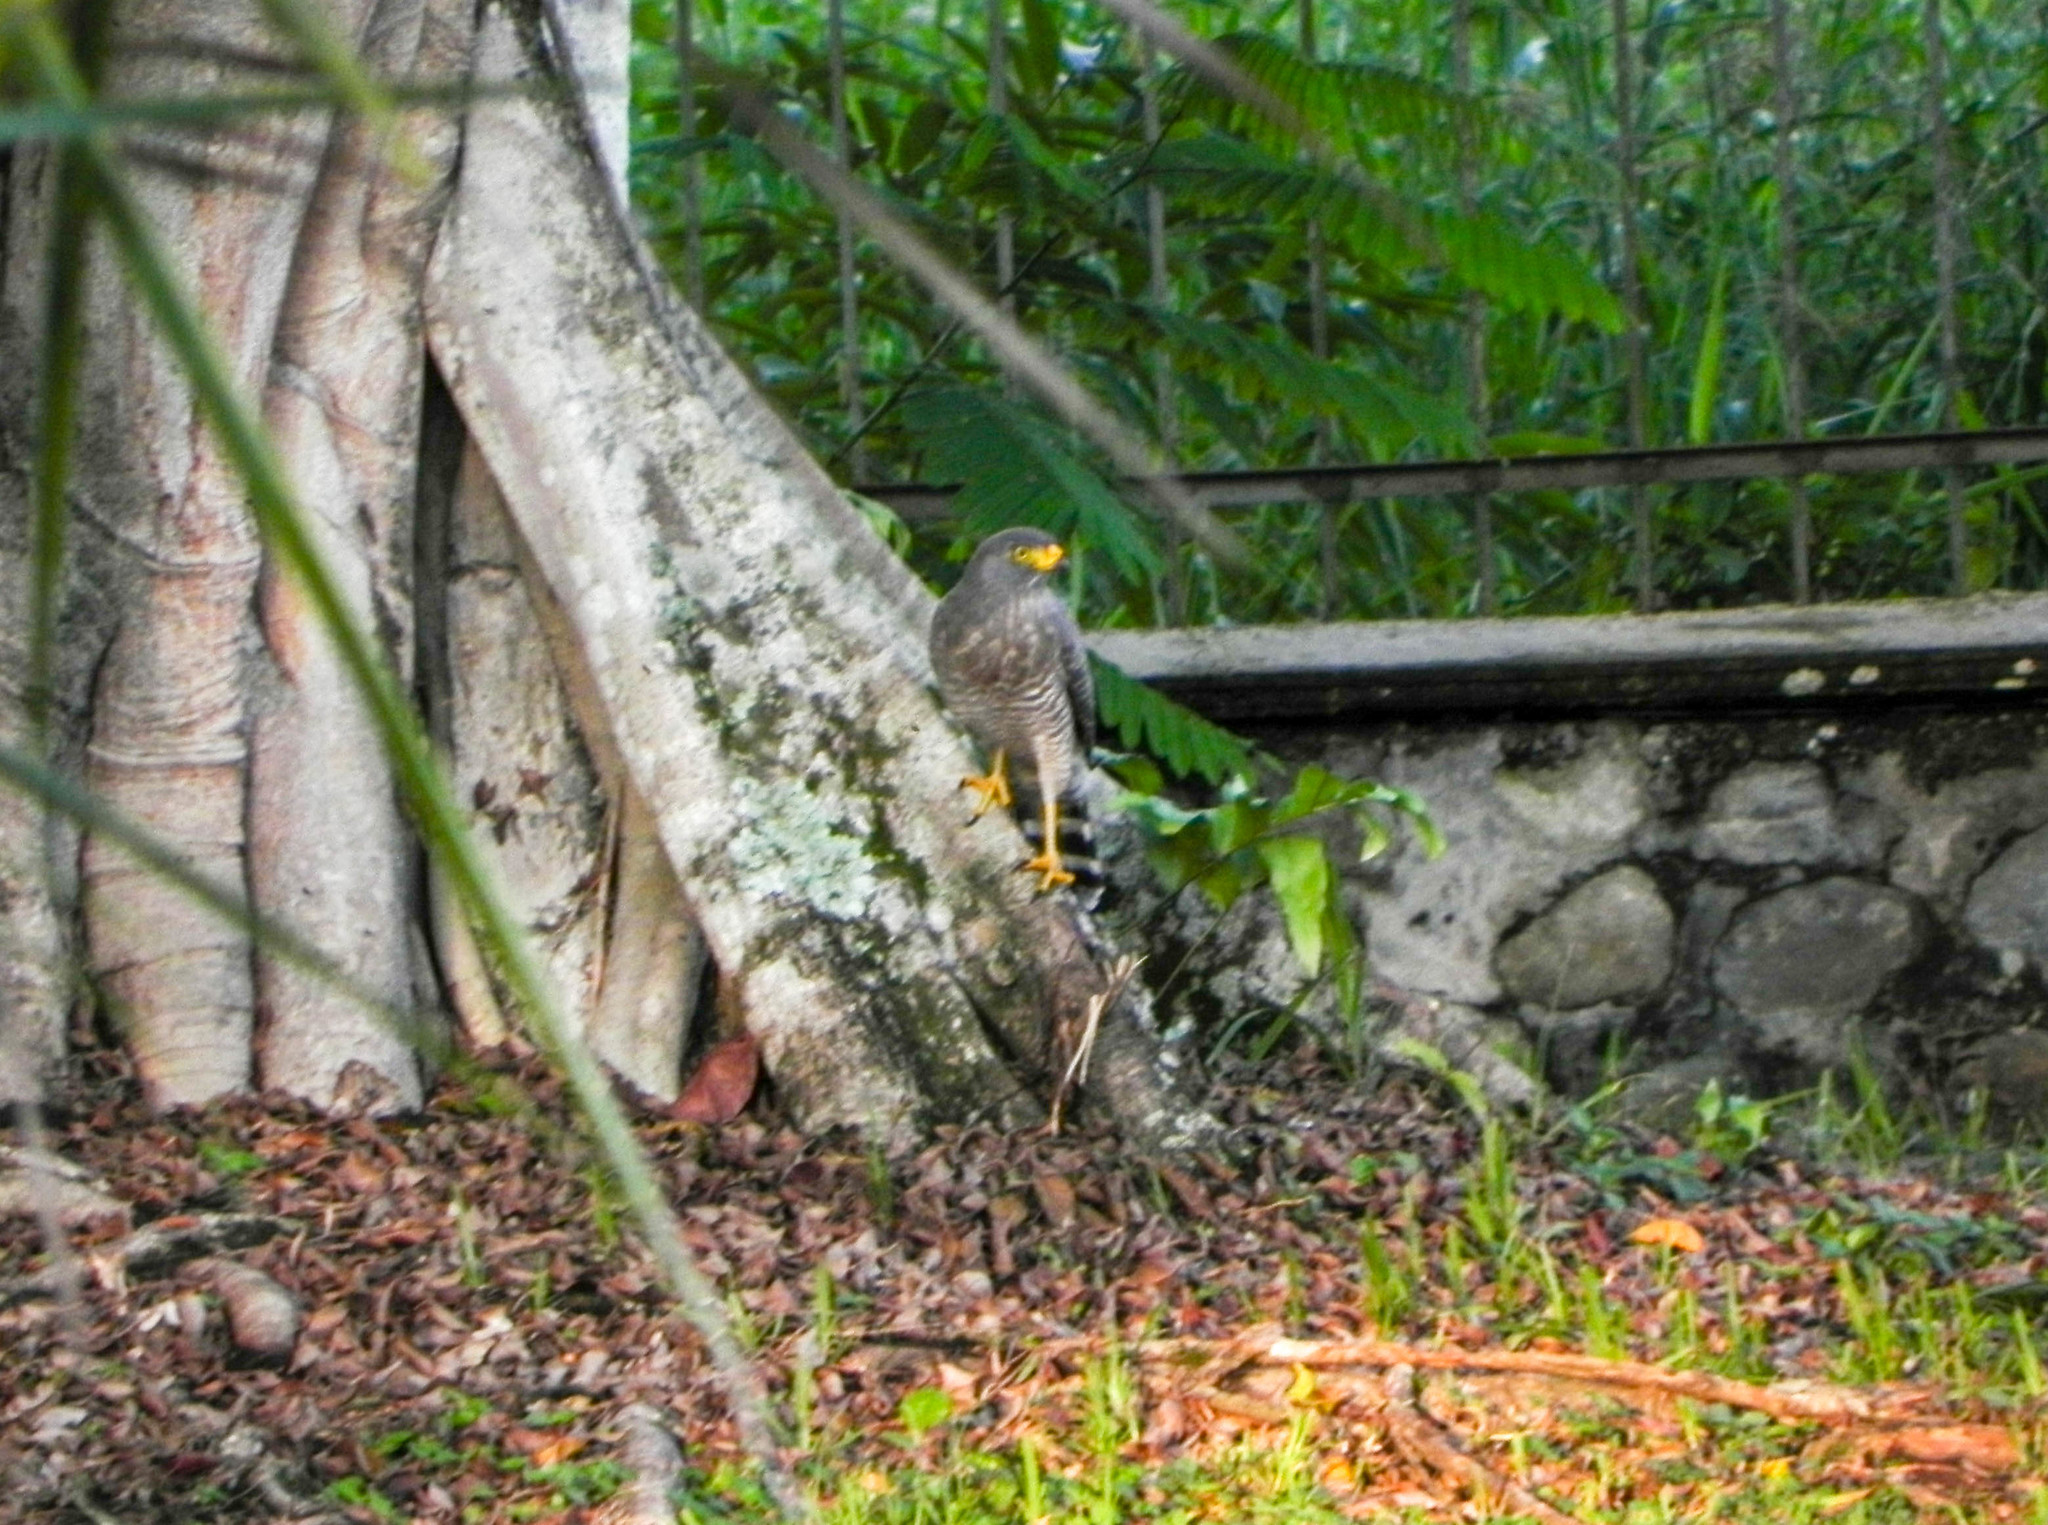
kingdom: Animalia
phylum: Chordata
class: Aves
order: Accipitriformes
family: Accipitridae
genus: Rupornis
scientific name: Rupornis magnirostris
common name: Roadside hawk
